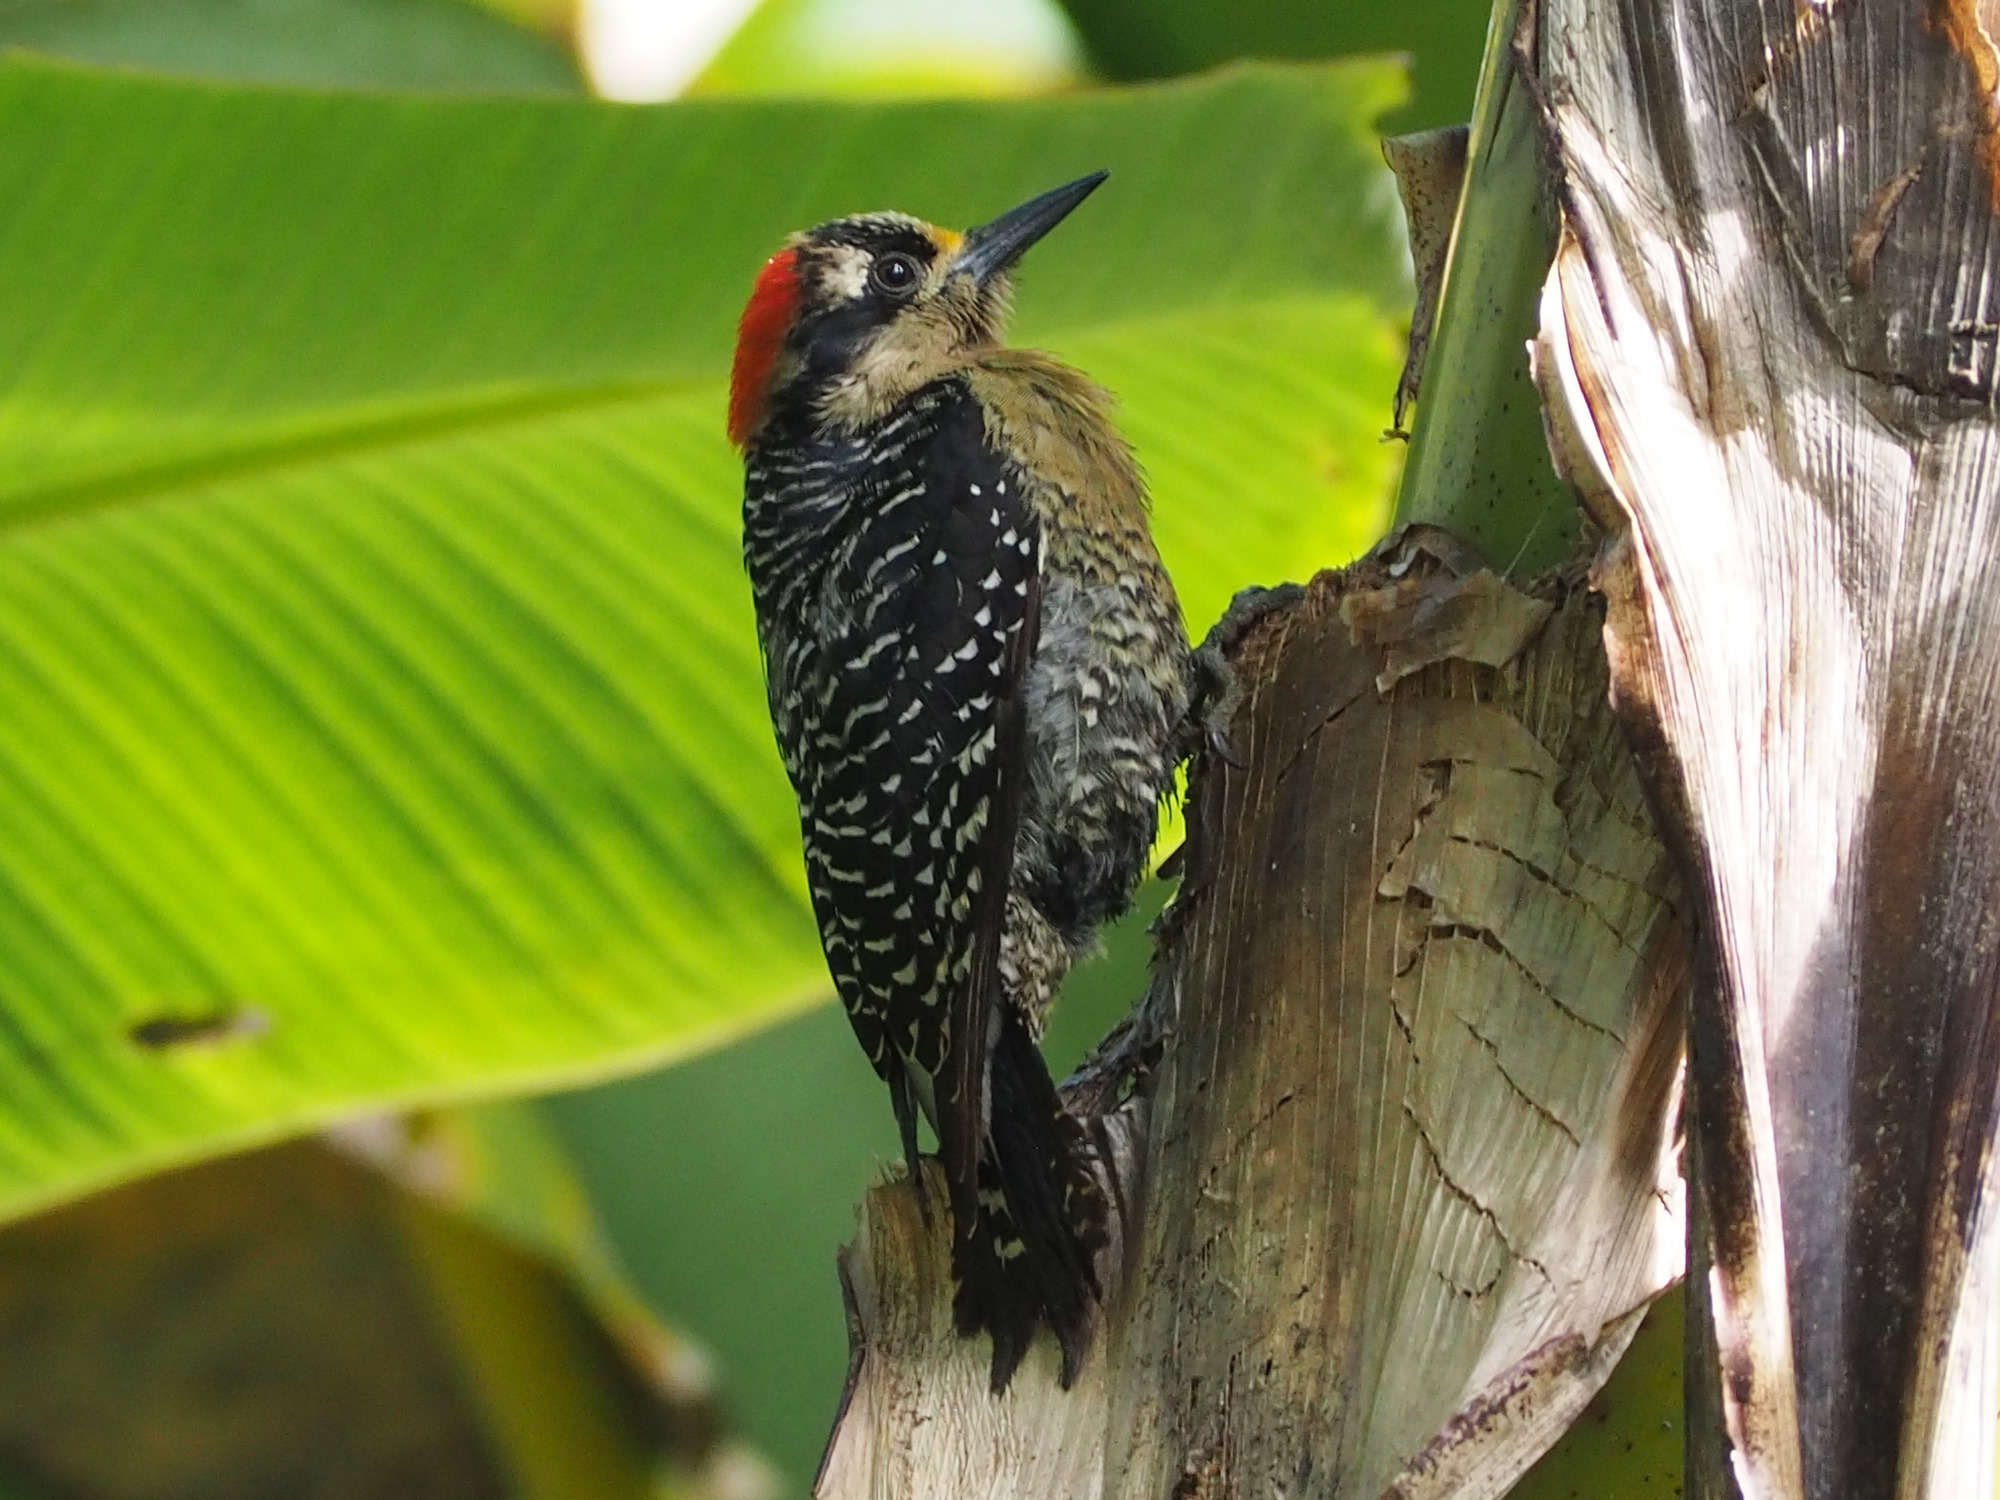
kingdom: Animalia
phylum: Chordata
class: Aves
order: Piciformes
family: Picidae
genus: Melanerpes
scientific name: Melanerpes pucherani
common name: Black-cheeked woodpecker
